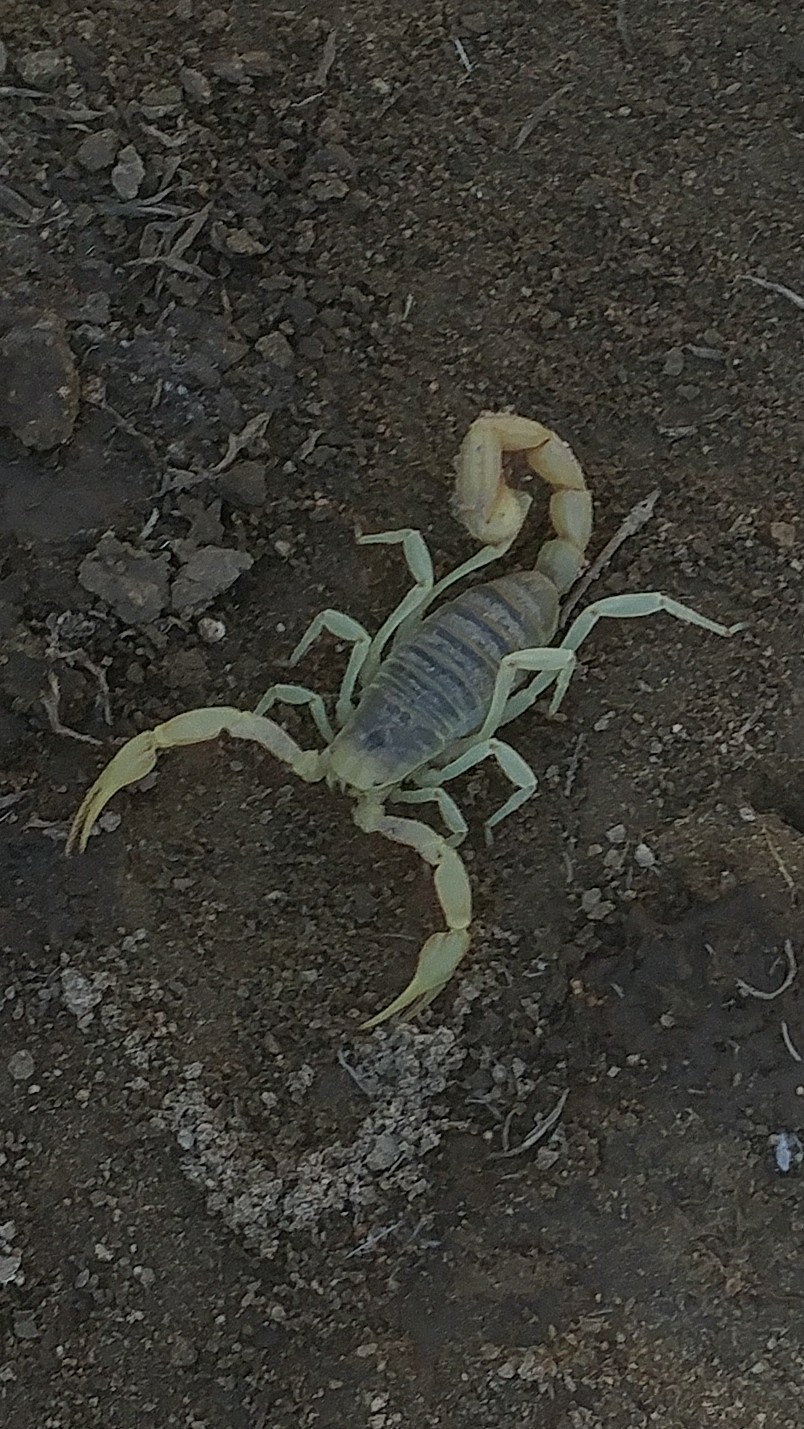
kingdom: Animalia
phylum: Arthropoda
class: Arachnida
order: Scorpiones
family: Hadruridae
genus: Hadrurus
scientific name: Hadrurus arizonensis
